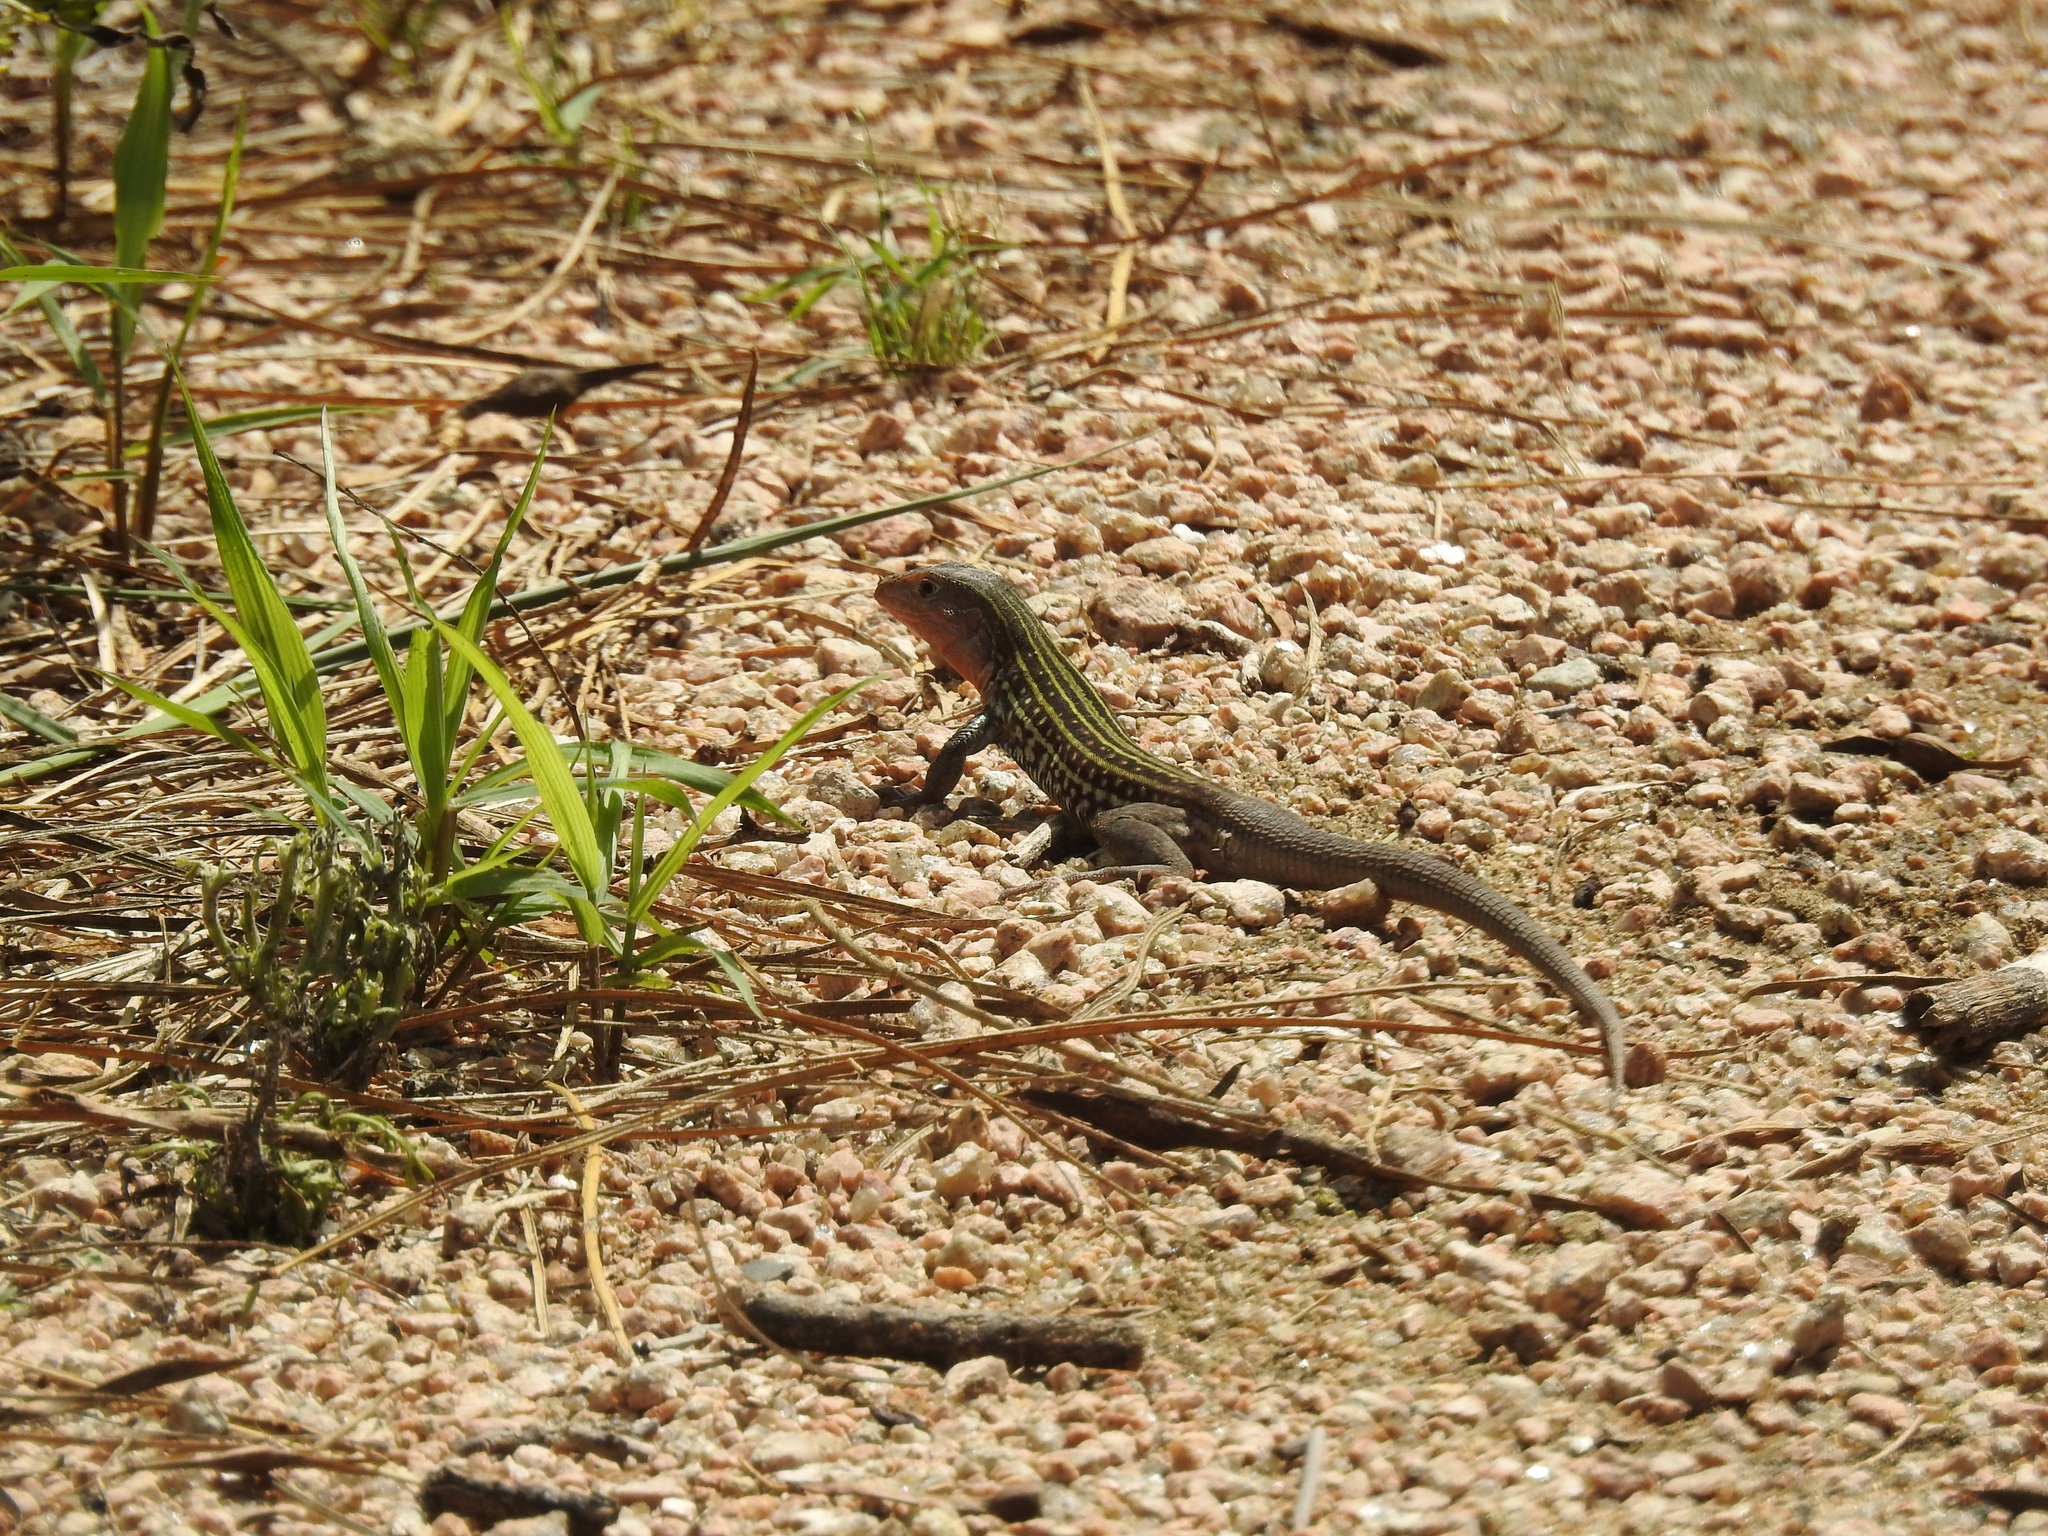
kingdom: Animalia
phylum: Chordata
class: Squamata
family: Teiidae
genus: Aspidoscelis
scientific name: Aspidoscelis gularis
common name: Eastern spotted whiptail
